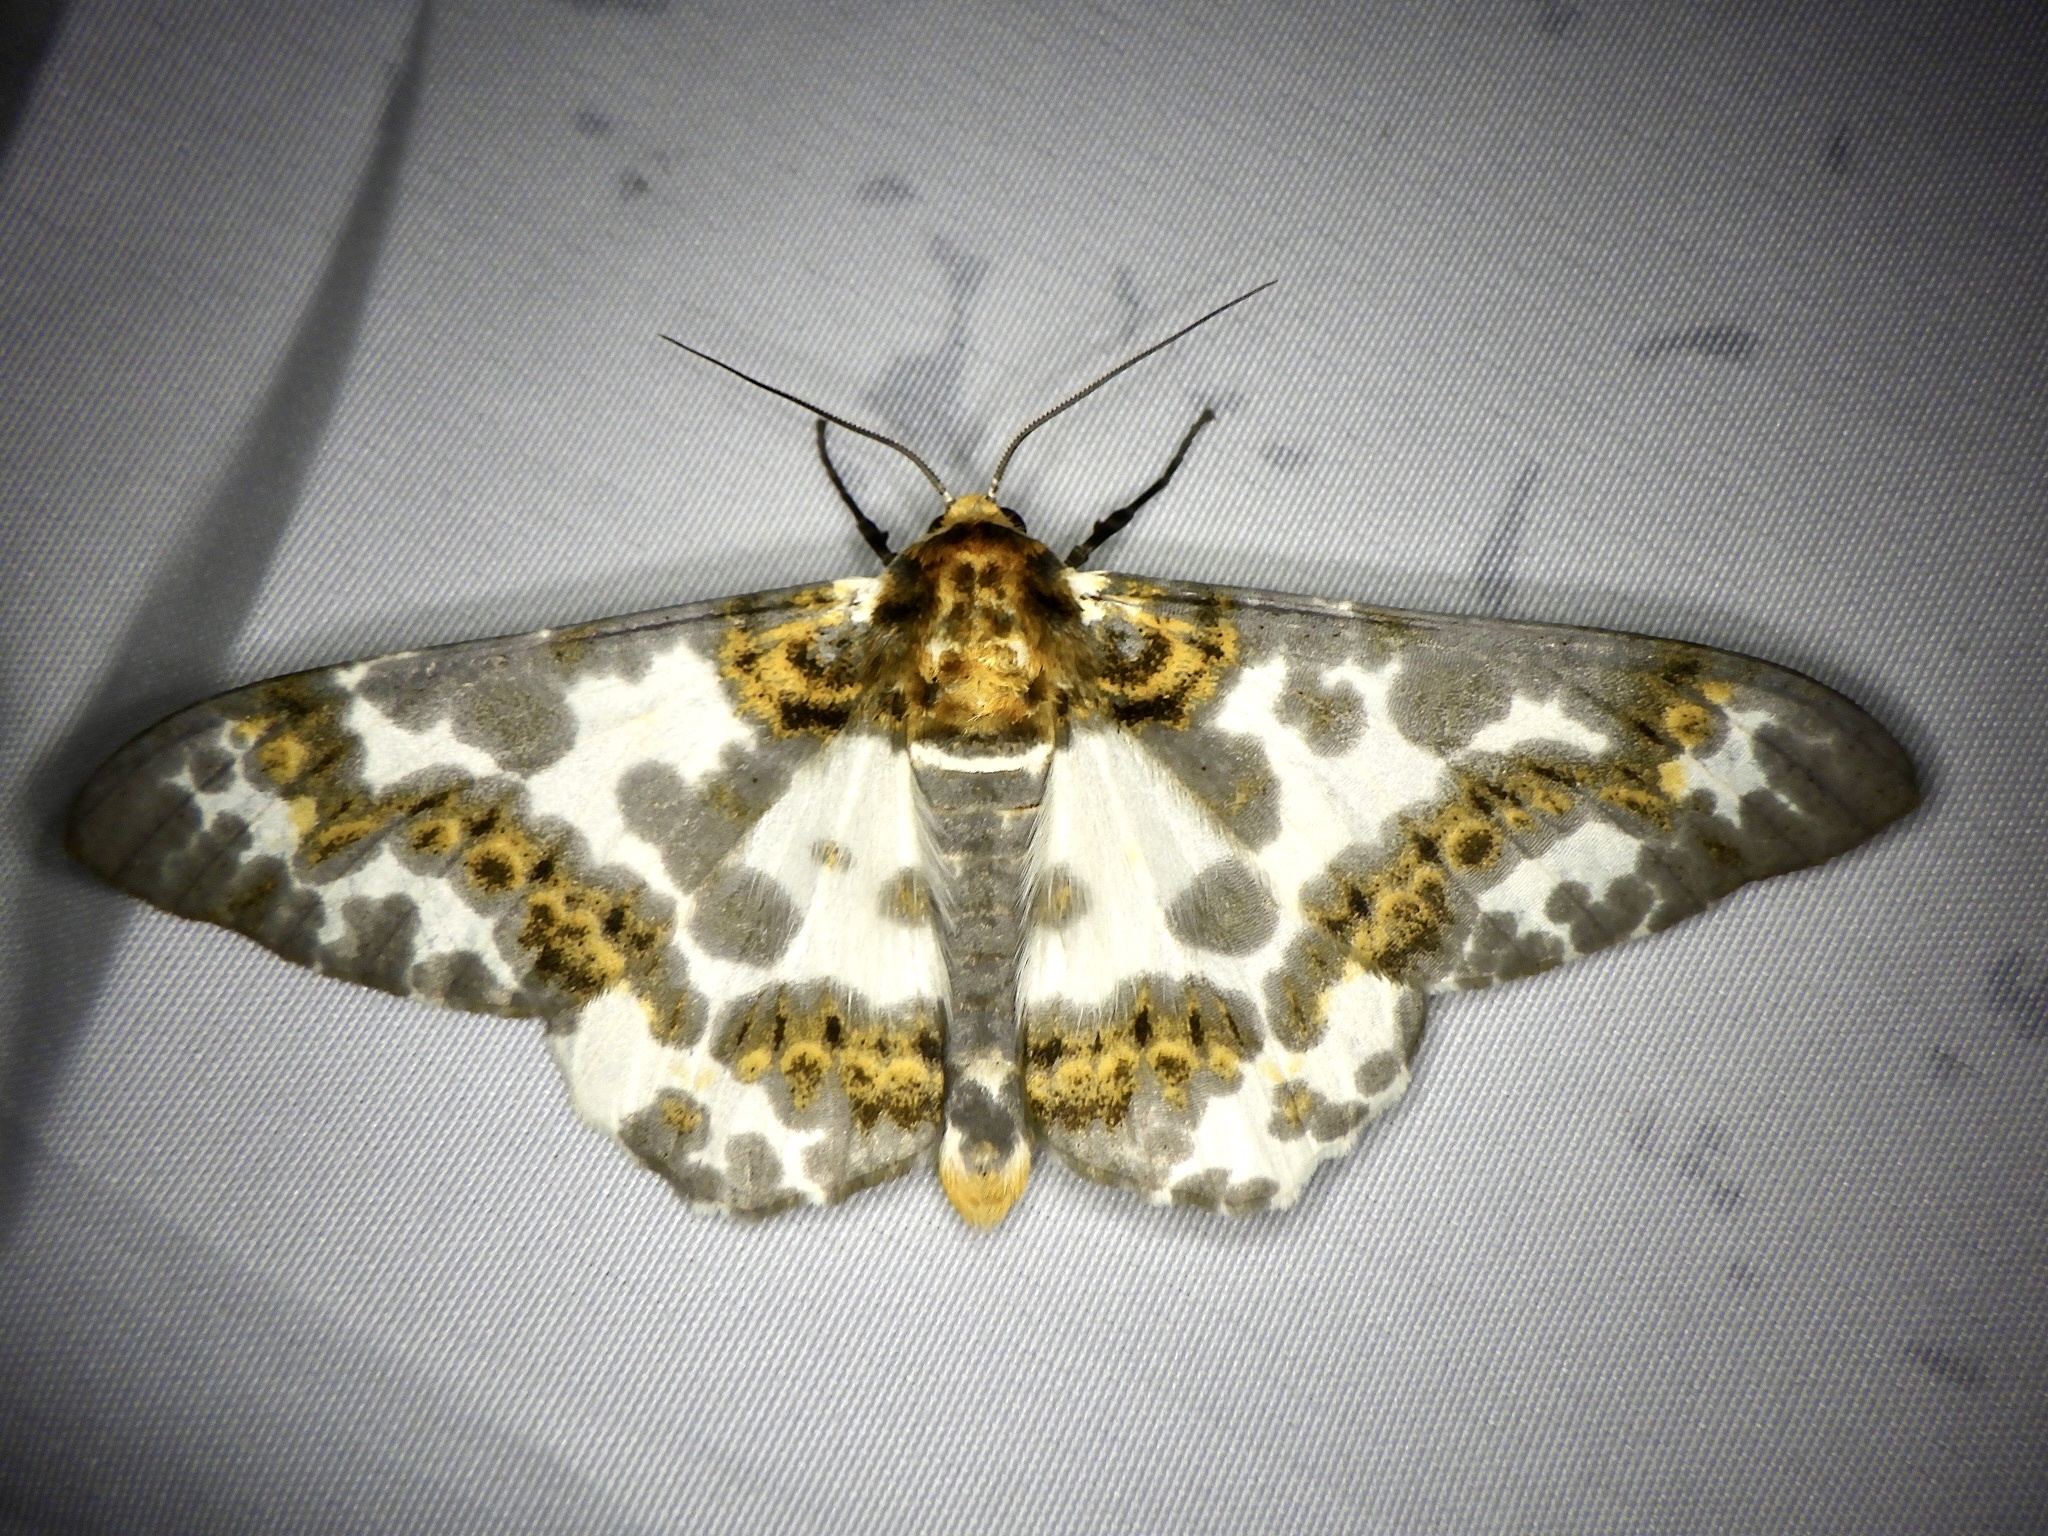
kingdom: Animalia
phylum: Arthropoda
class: Insecta
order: Lepidoptera
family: Geometridae
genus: Biston
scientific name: Biston panterinaria
